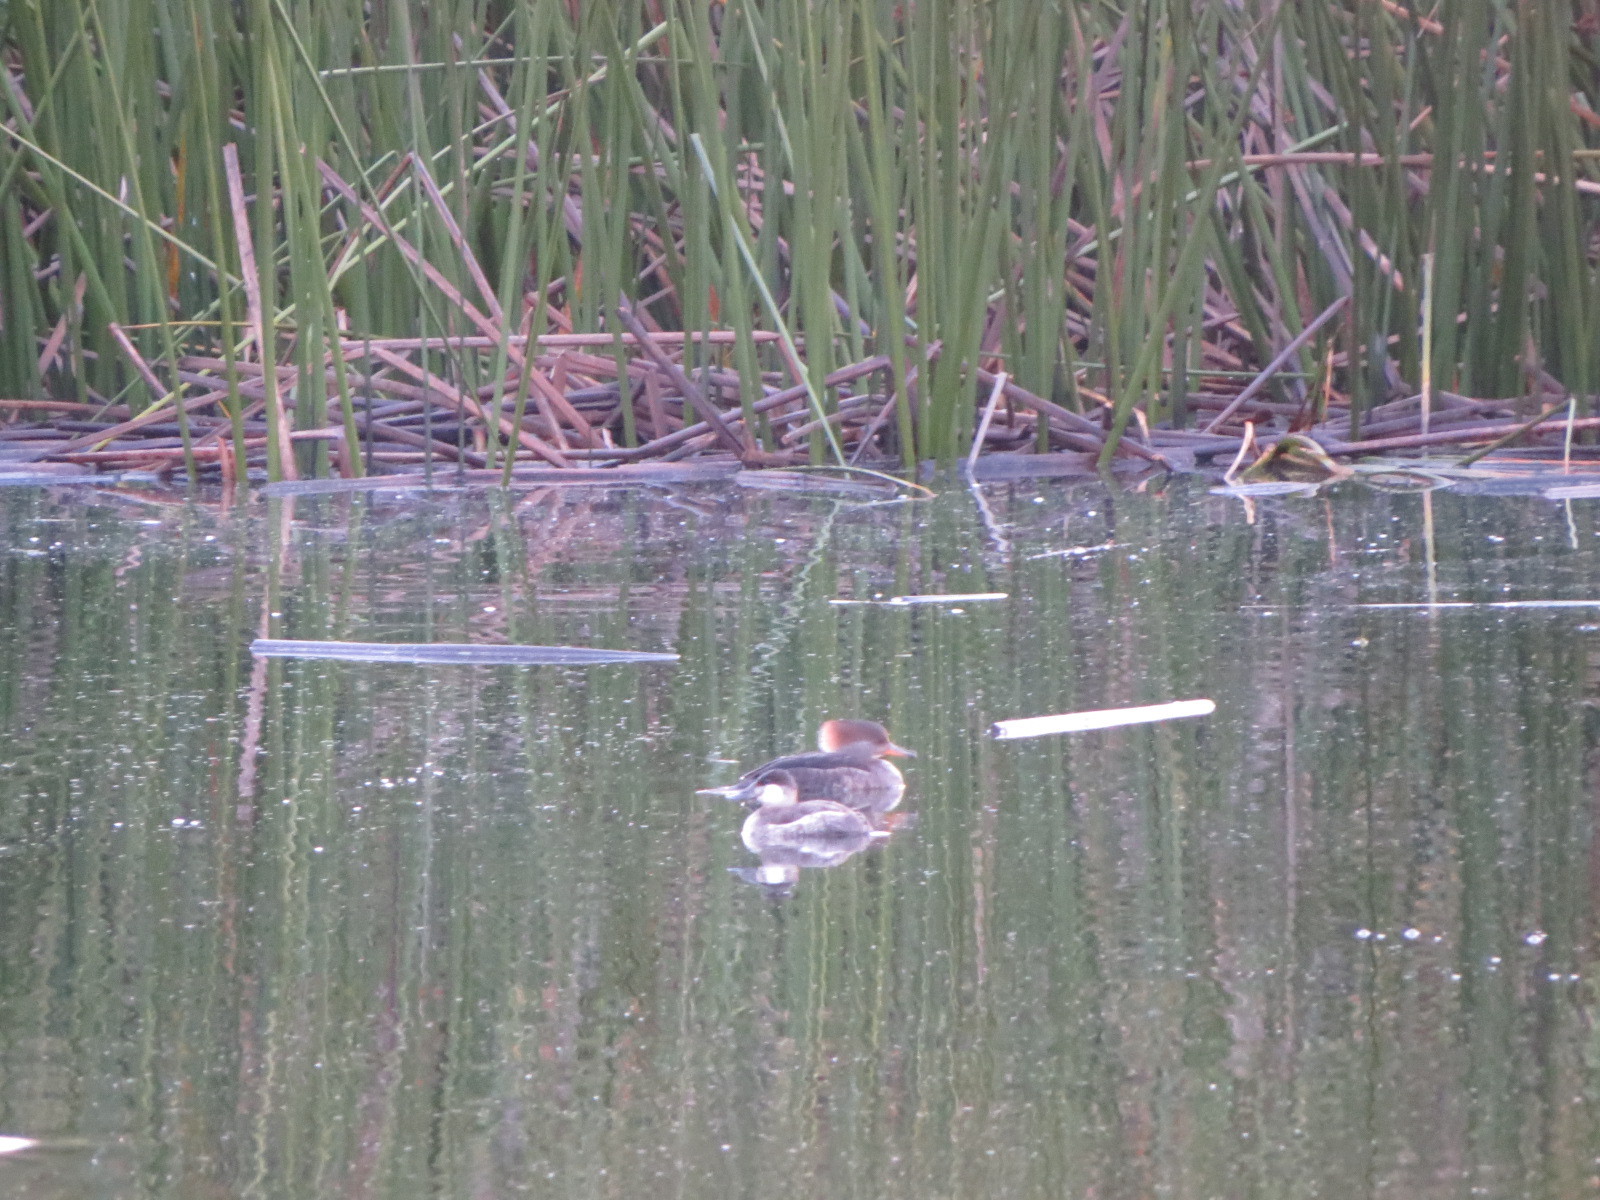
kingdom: Animalia
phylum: Chordata
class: Aves
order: Anseriformes
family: Anatidae
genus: Oxyura
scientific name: Oxyura jamaicensis
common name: Ruddy duck
